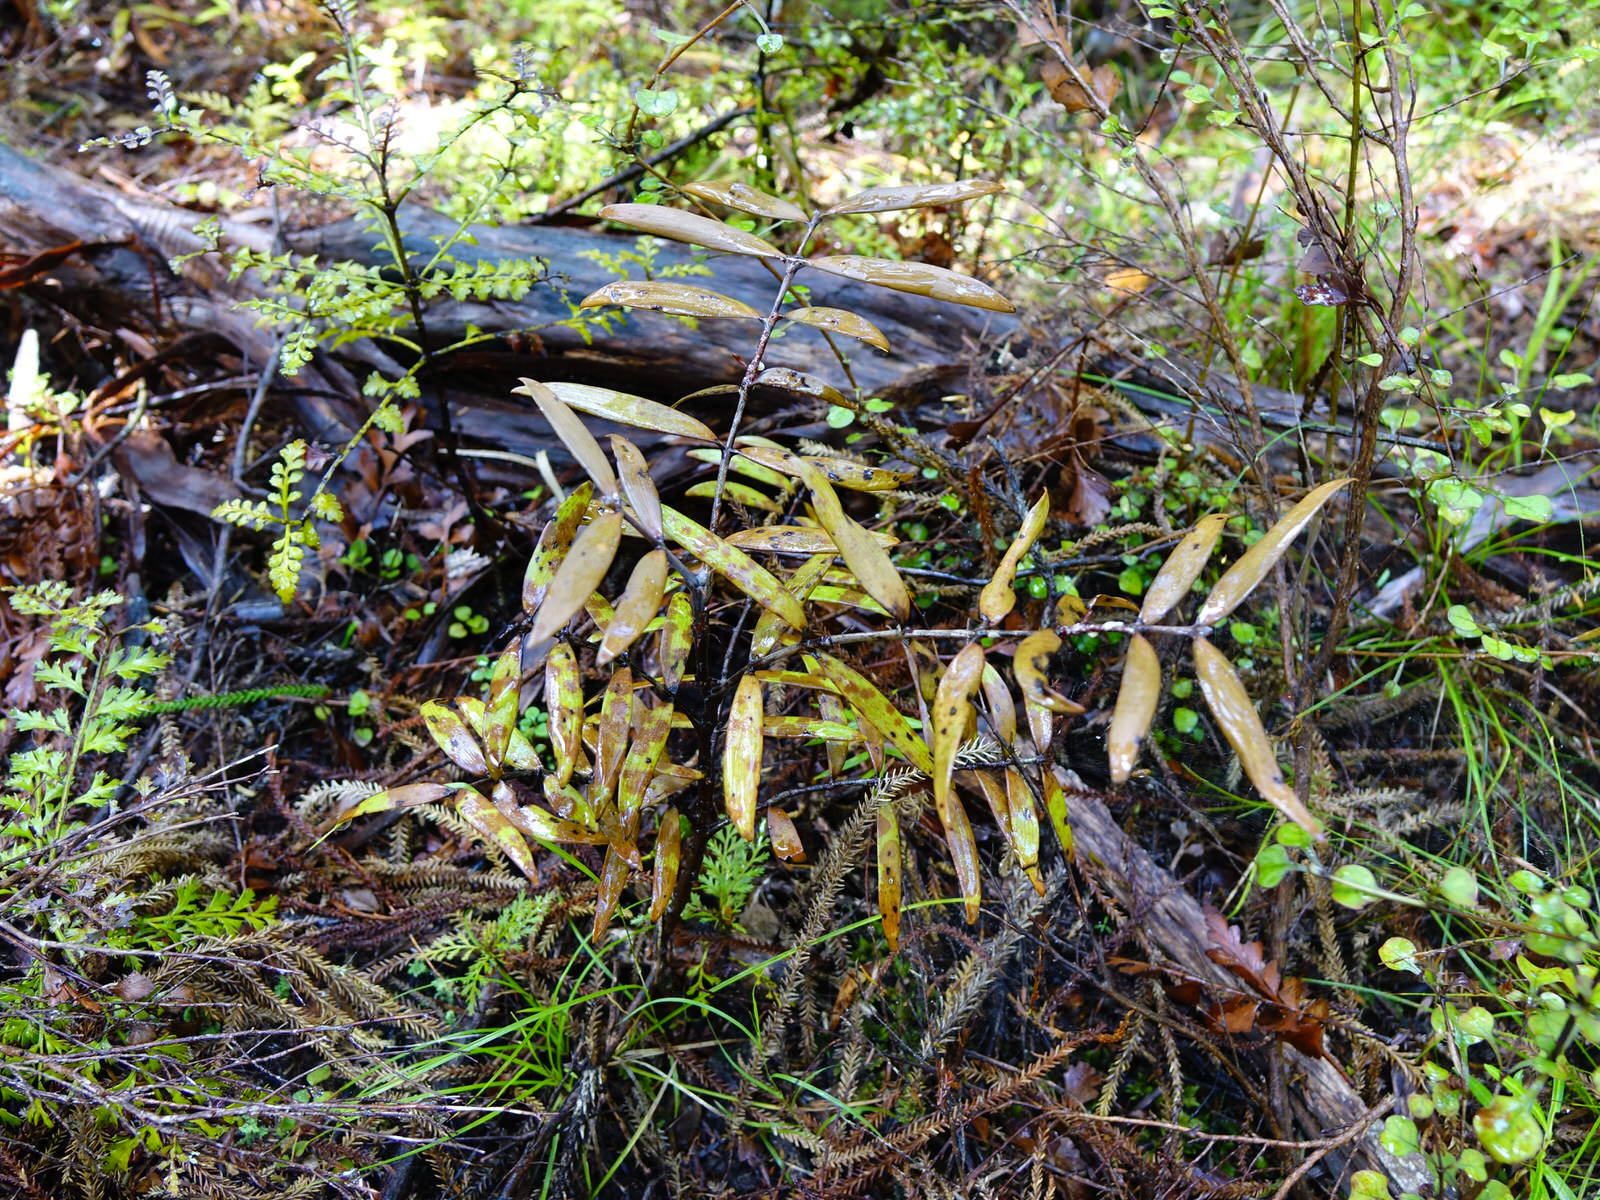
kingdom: Plantae
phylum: Tracheophyta
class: Pinopsida
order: Pinales
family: Araucariaceae
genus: Agathis
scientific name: Agathis australis
